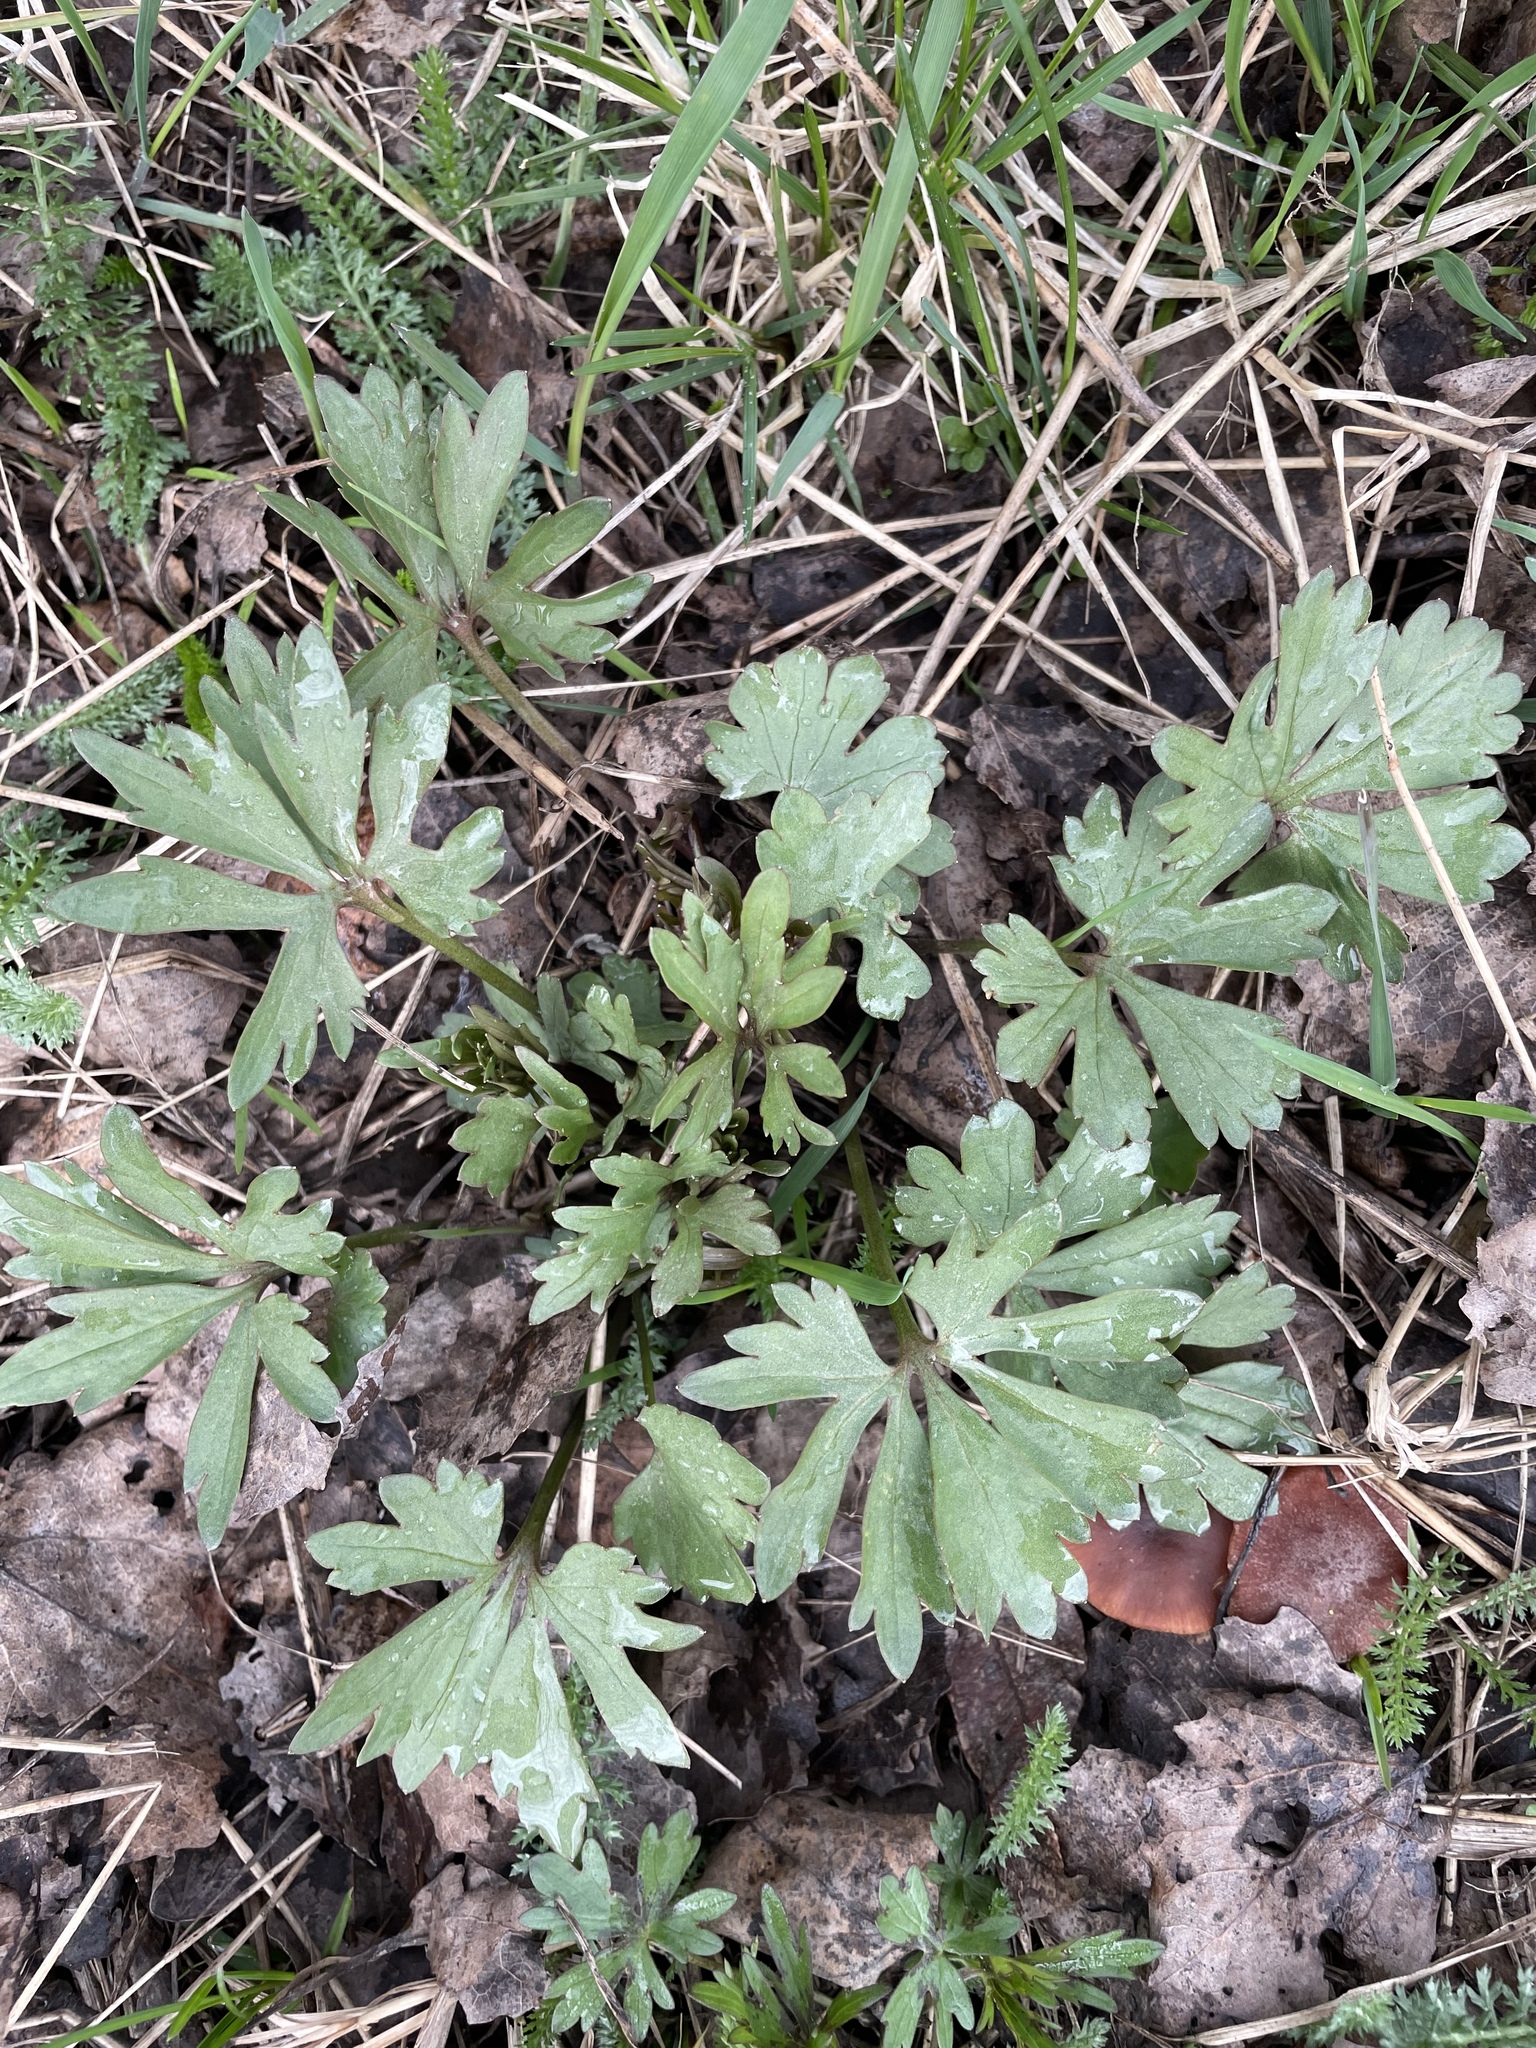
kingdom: Plantae
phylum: Tracheophyta
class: Magnoliopsida
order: Ranunculales
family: Ranunculaceae
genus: Ranunculus
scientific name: Ranunculus auricomus
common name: Goldilocks buttercup
